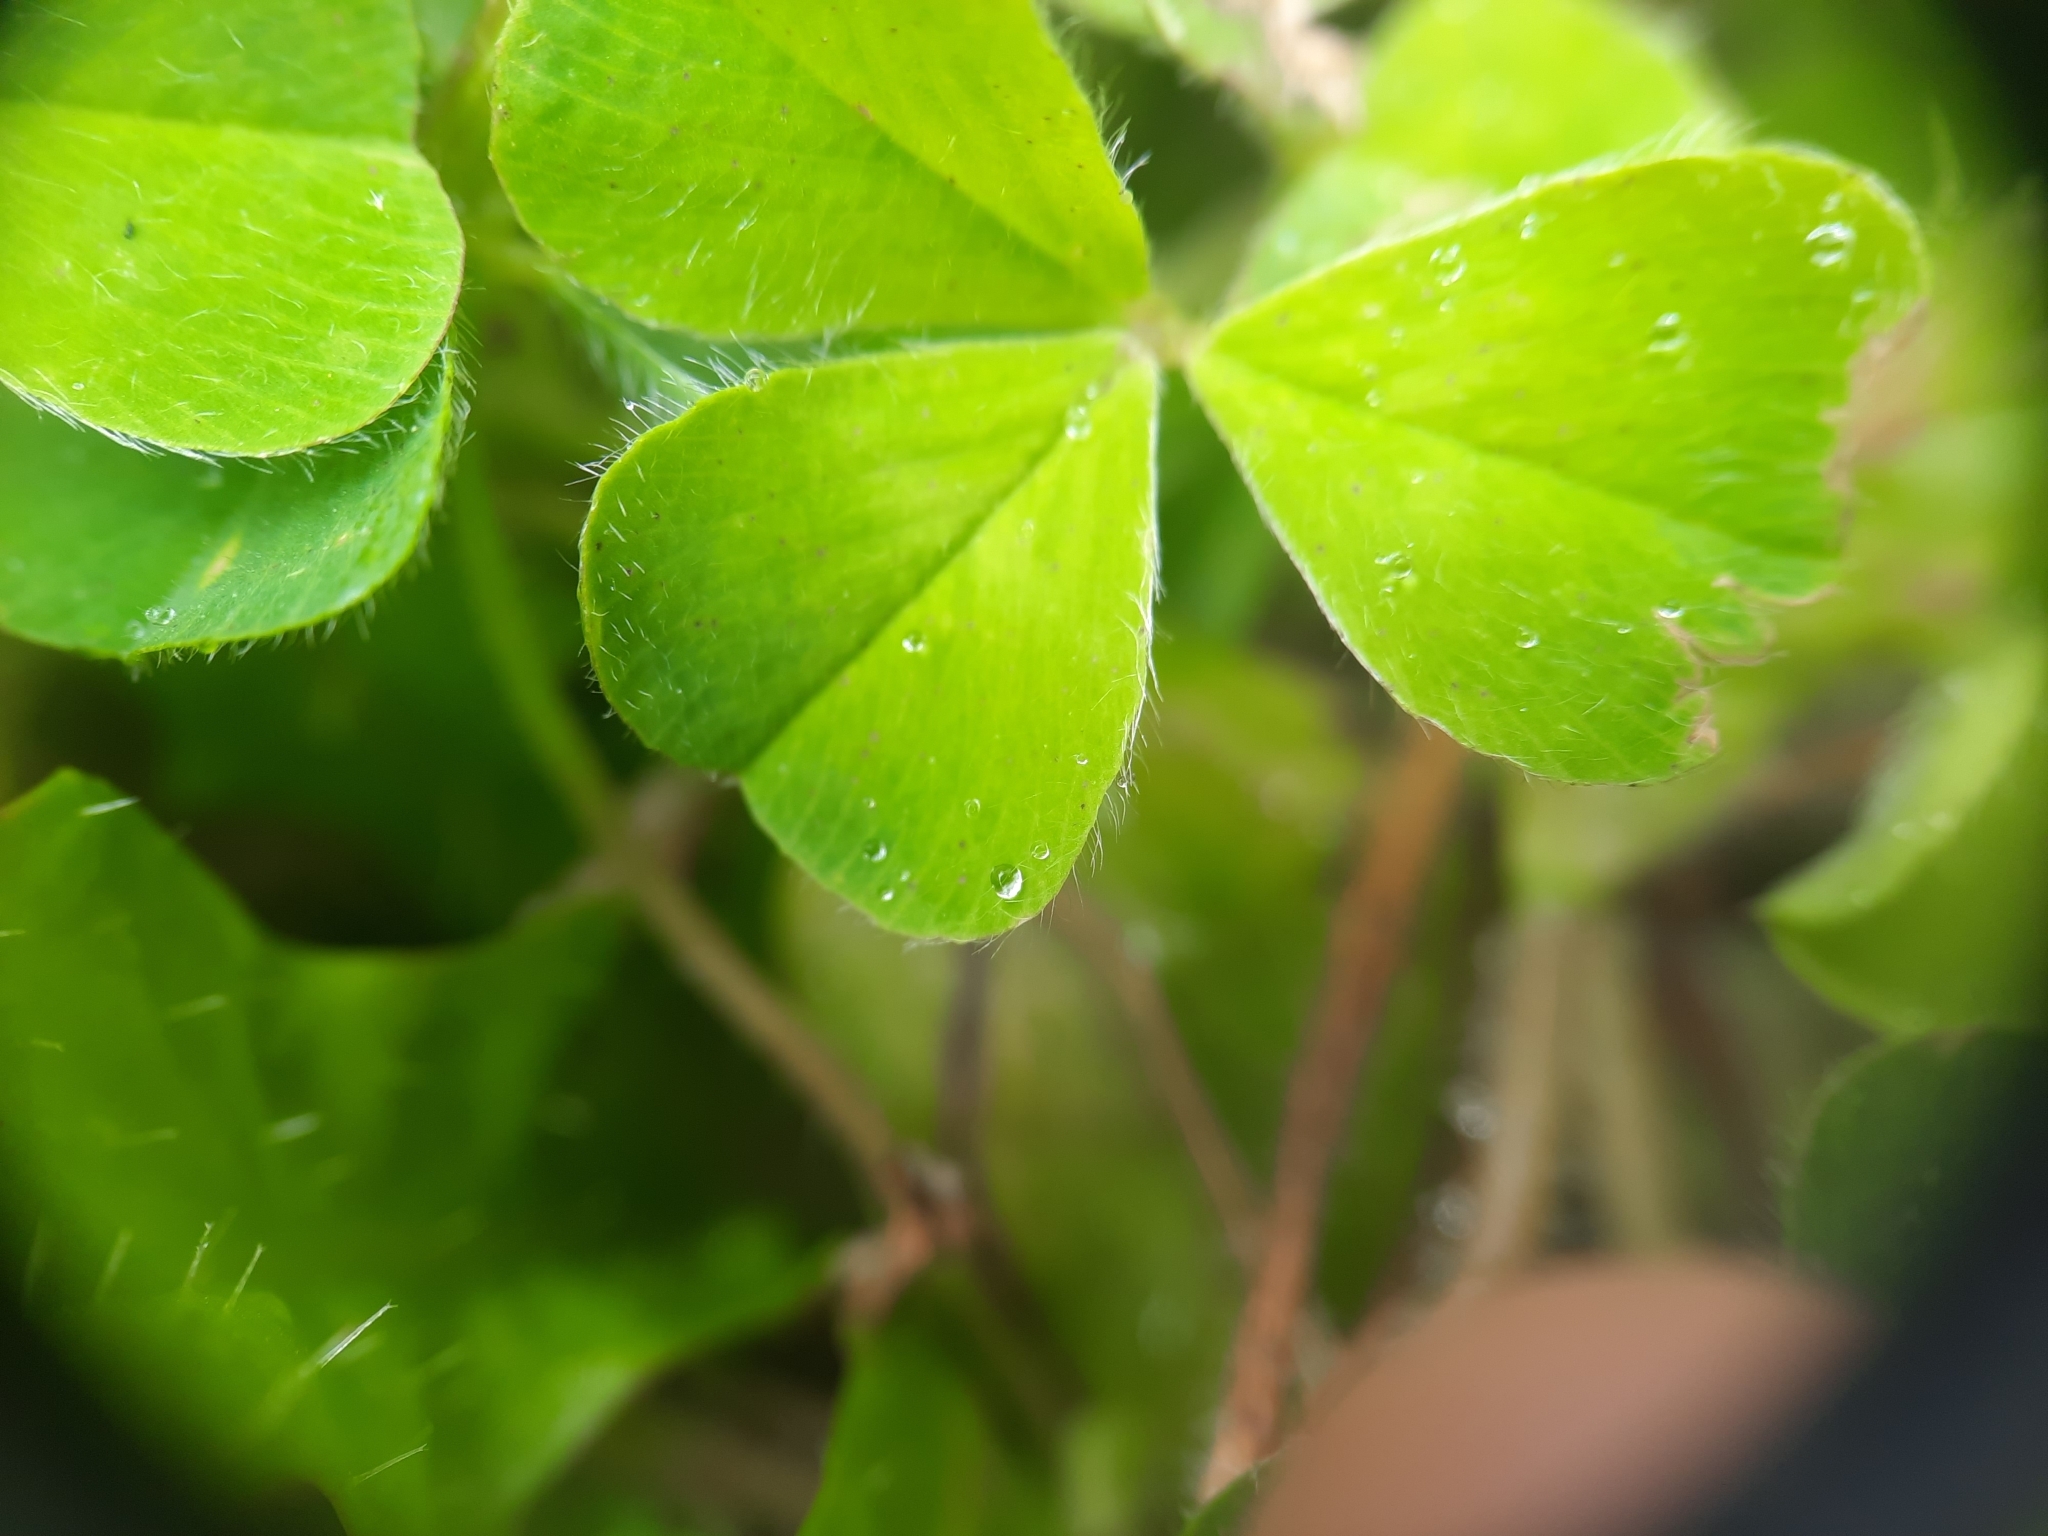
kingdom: Plantae
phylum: Tracheophyta
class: Magnoliopsida
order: Fabales
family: Fabaceae
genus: Trifolium
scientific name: Trifolium subterraneum
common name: Subterranean clover
